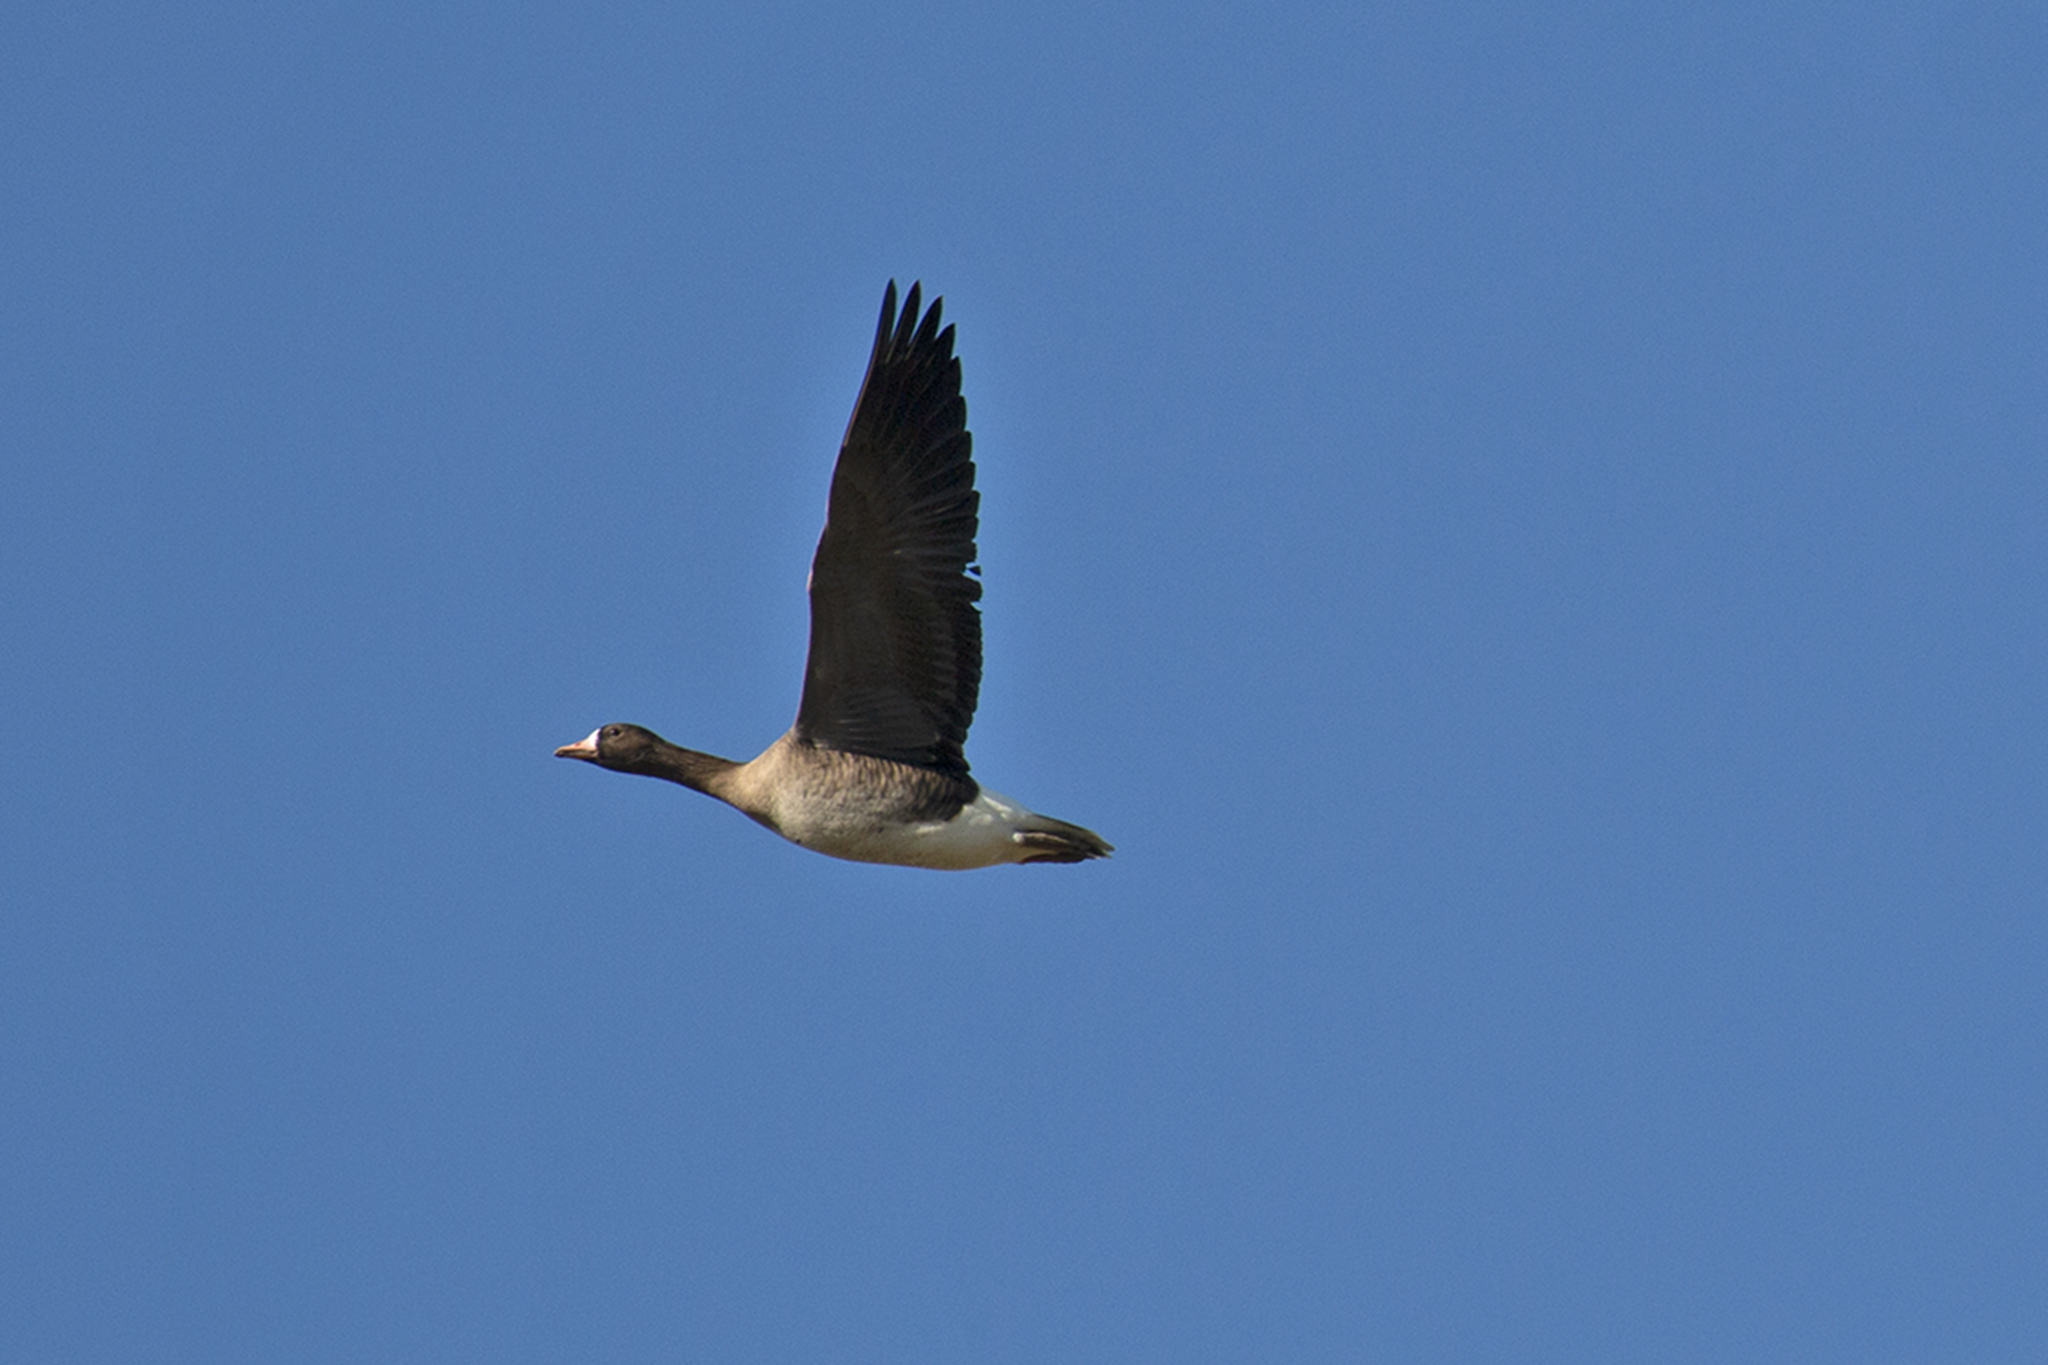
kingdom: Animalia
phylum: Chordata
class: Aves
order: Anseriformes
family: Anatidae
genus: Anser
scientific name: Anser albifrons
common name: Greater white-fronted goose
